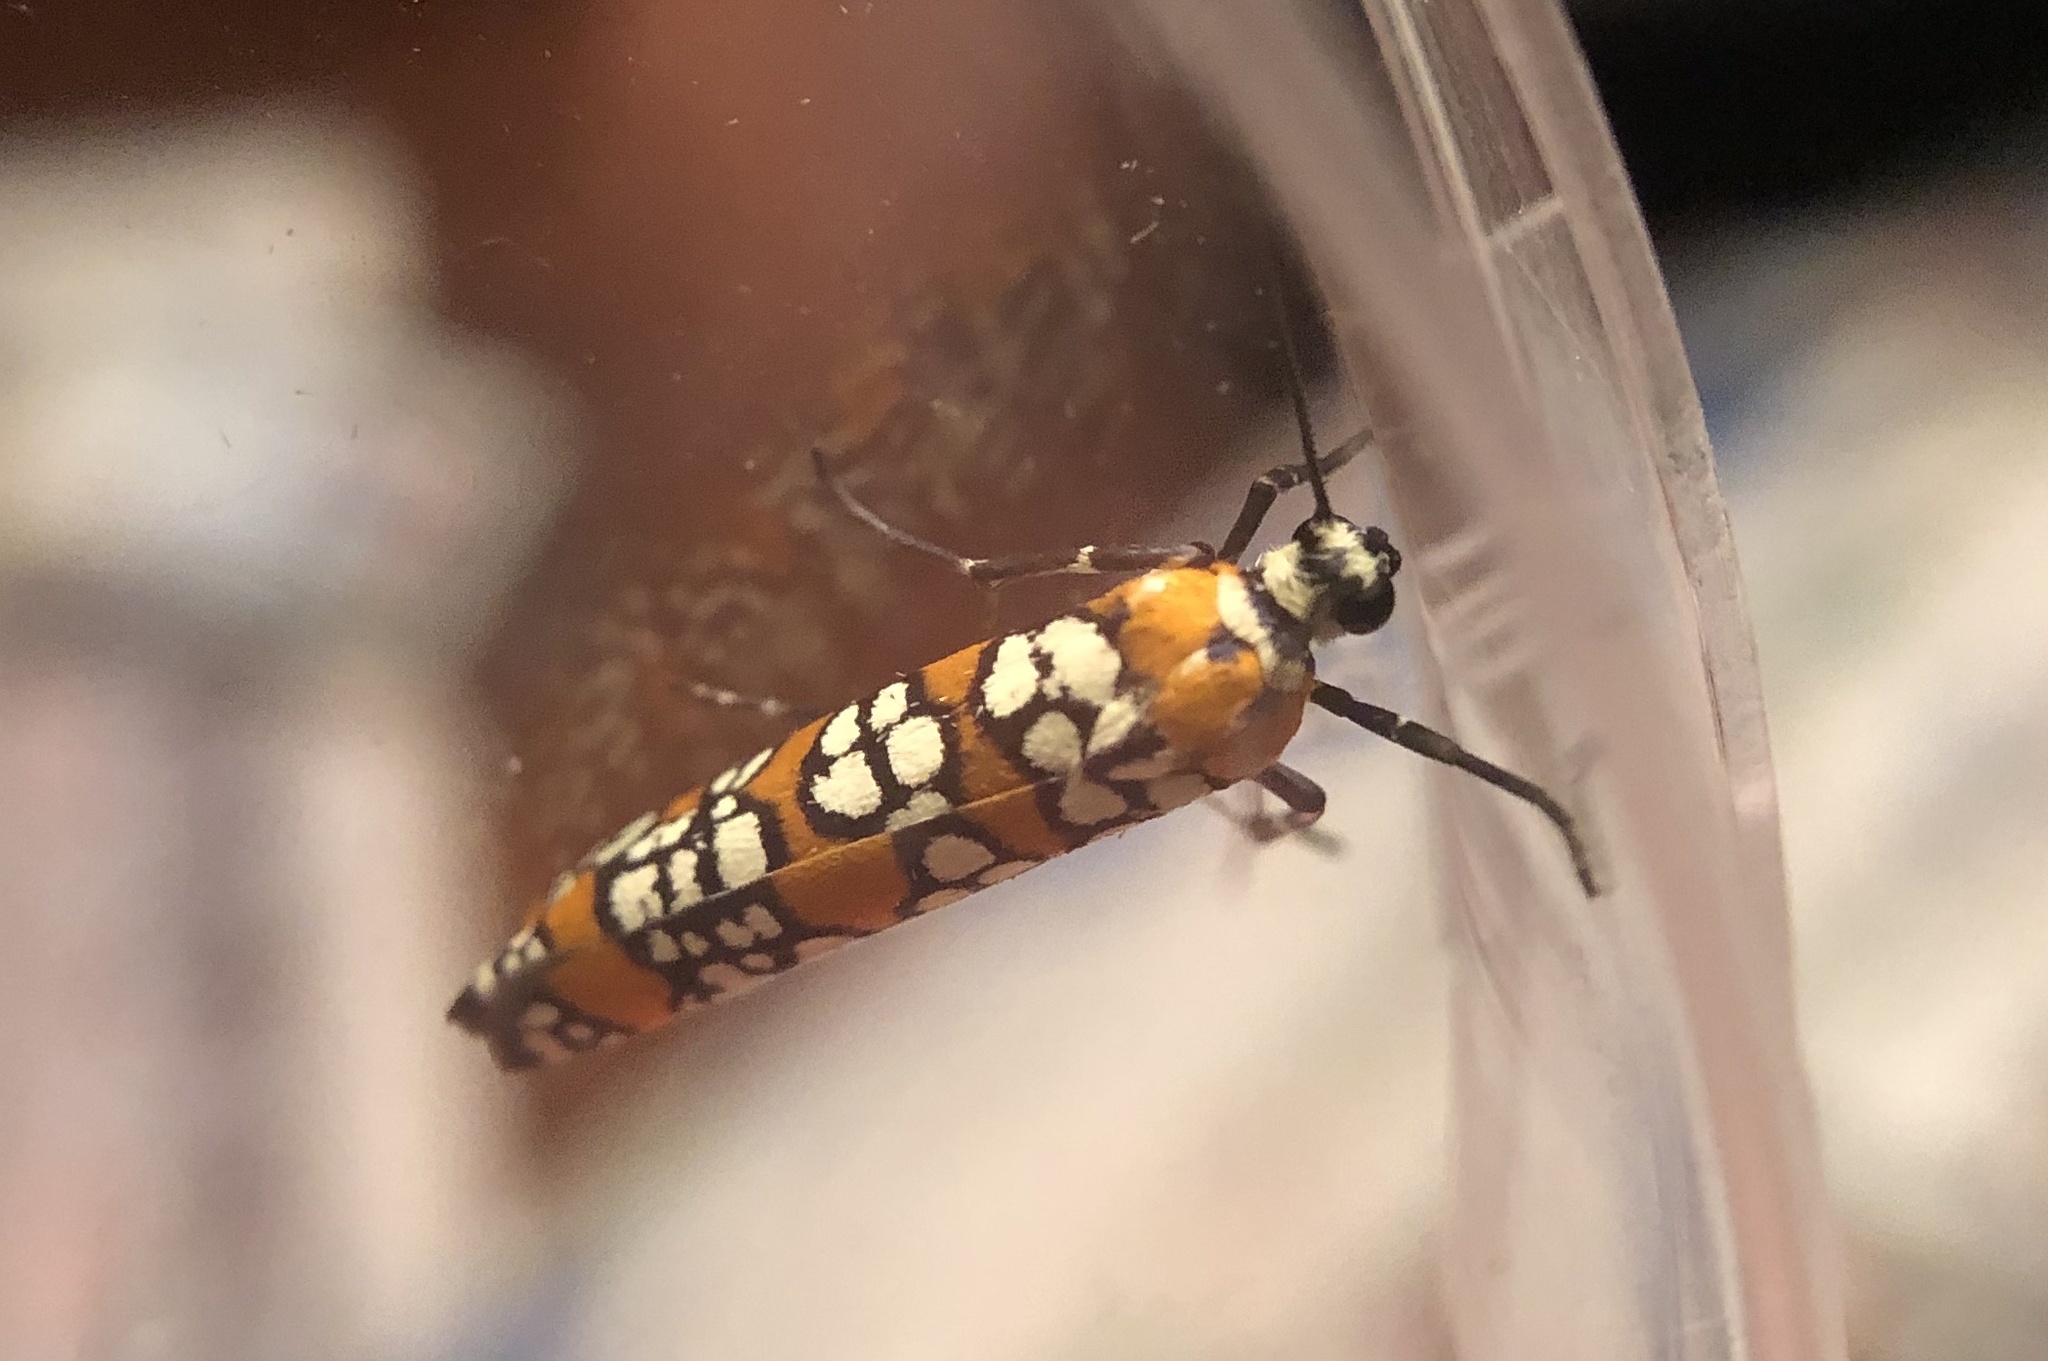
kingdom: Animalia
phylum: Arthropoda
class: Insecta
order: Lepidoptera
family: Attevidae
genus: Atteva
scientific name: Atteva punctella
